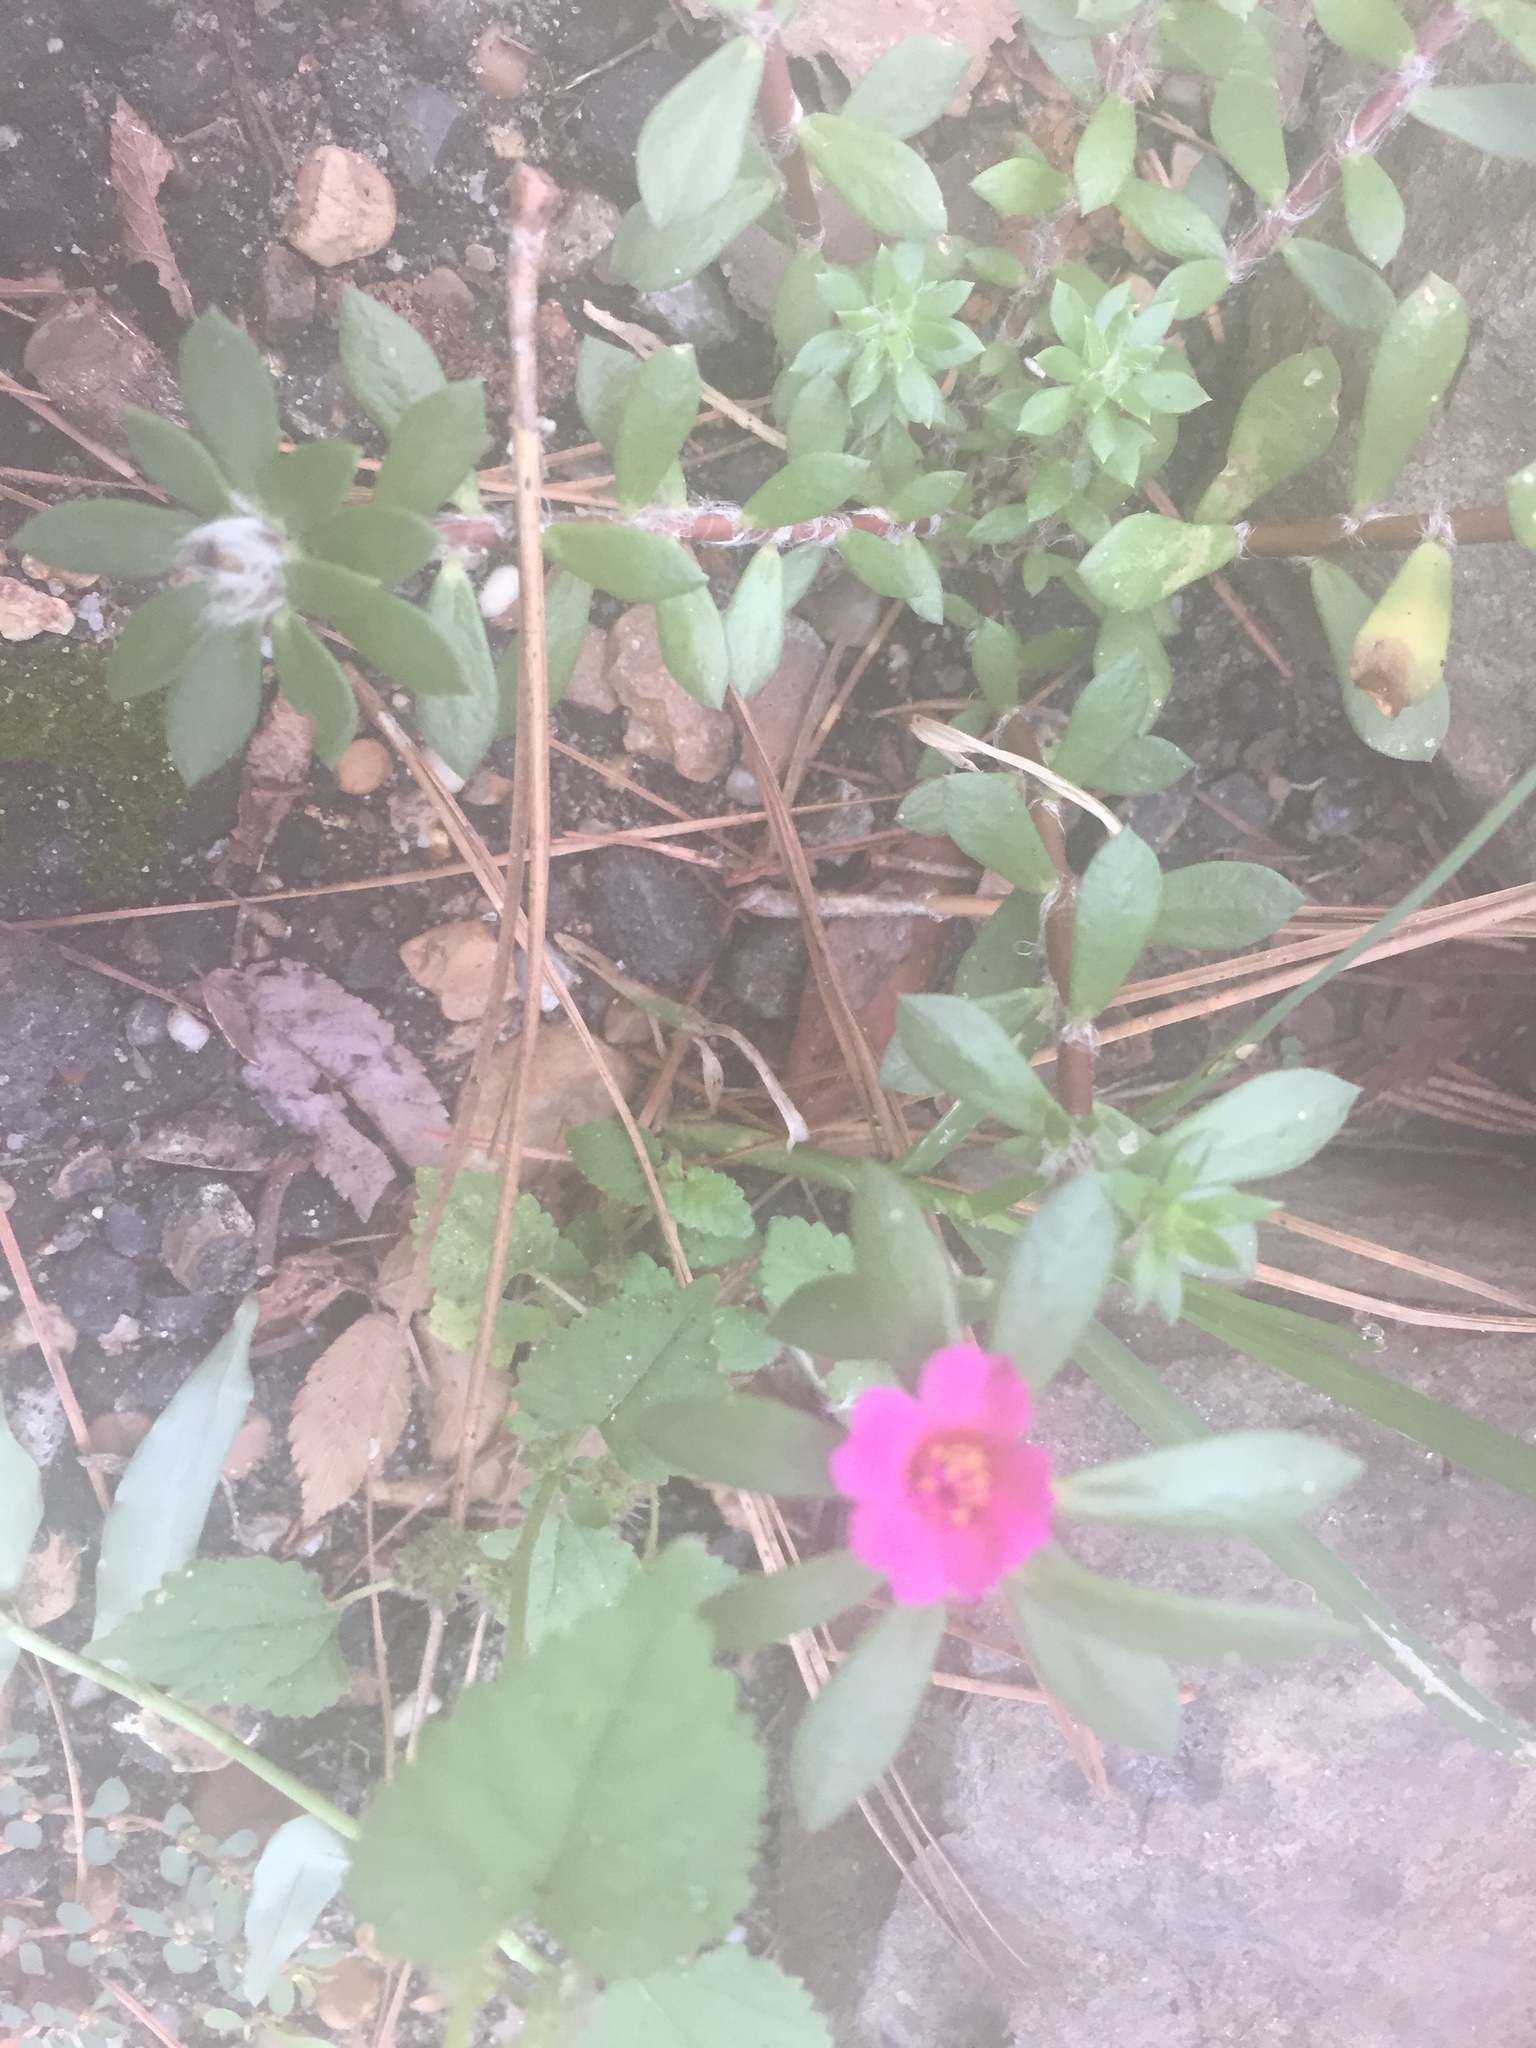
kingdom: Plantae
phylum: Tracheophyta
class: Magnoliopsida
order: Caryophyllales
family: Portulacaceae
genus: Portulaca
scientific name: Portulaca amilis
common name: Paraguayan purslane
